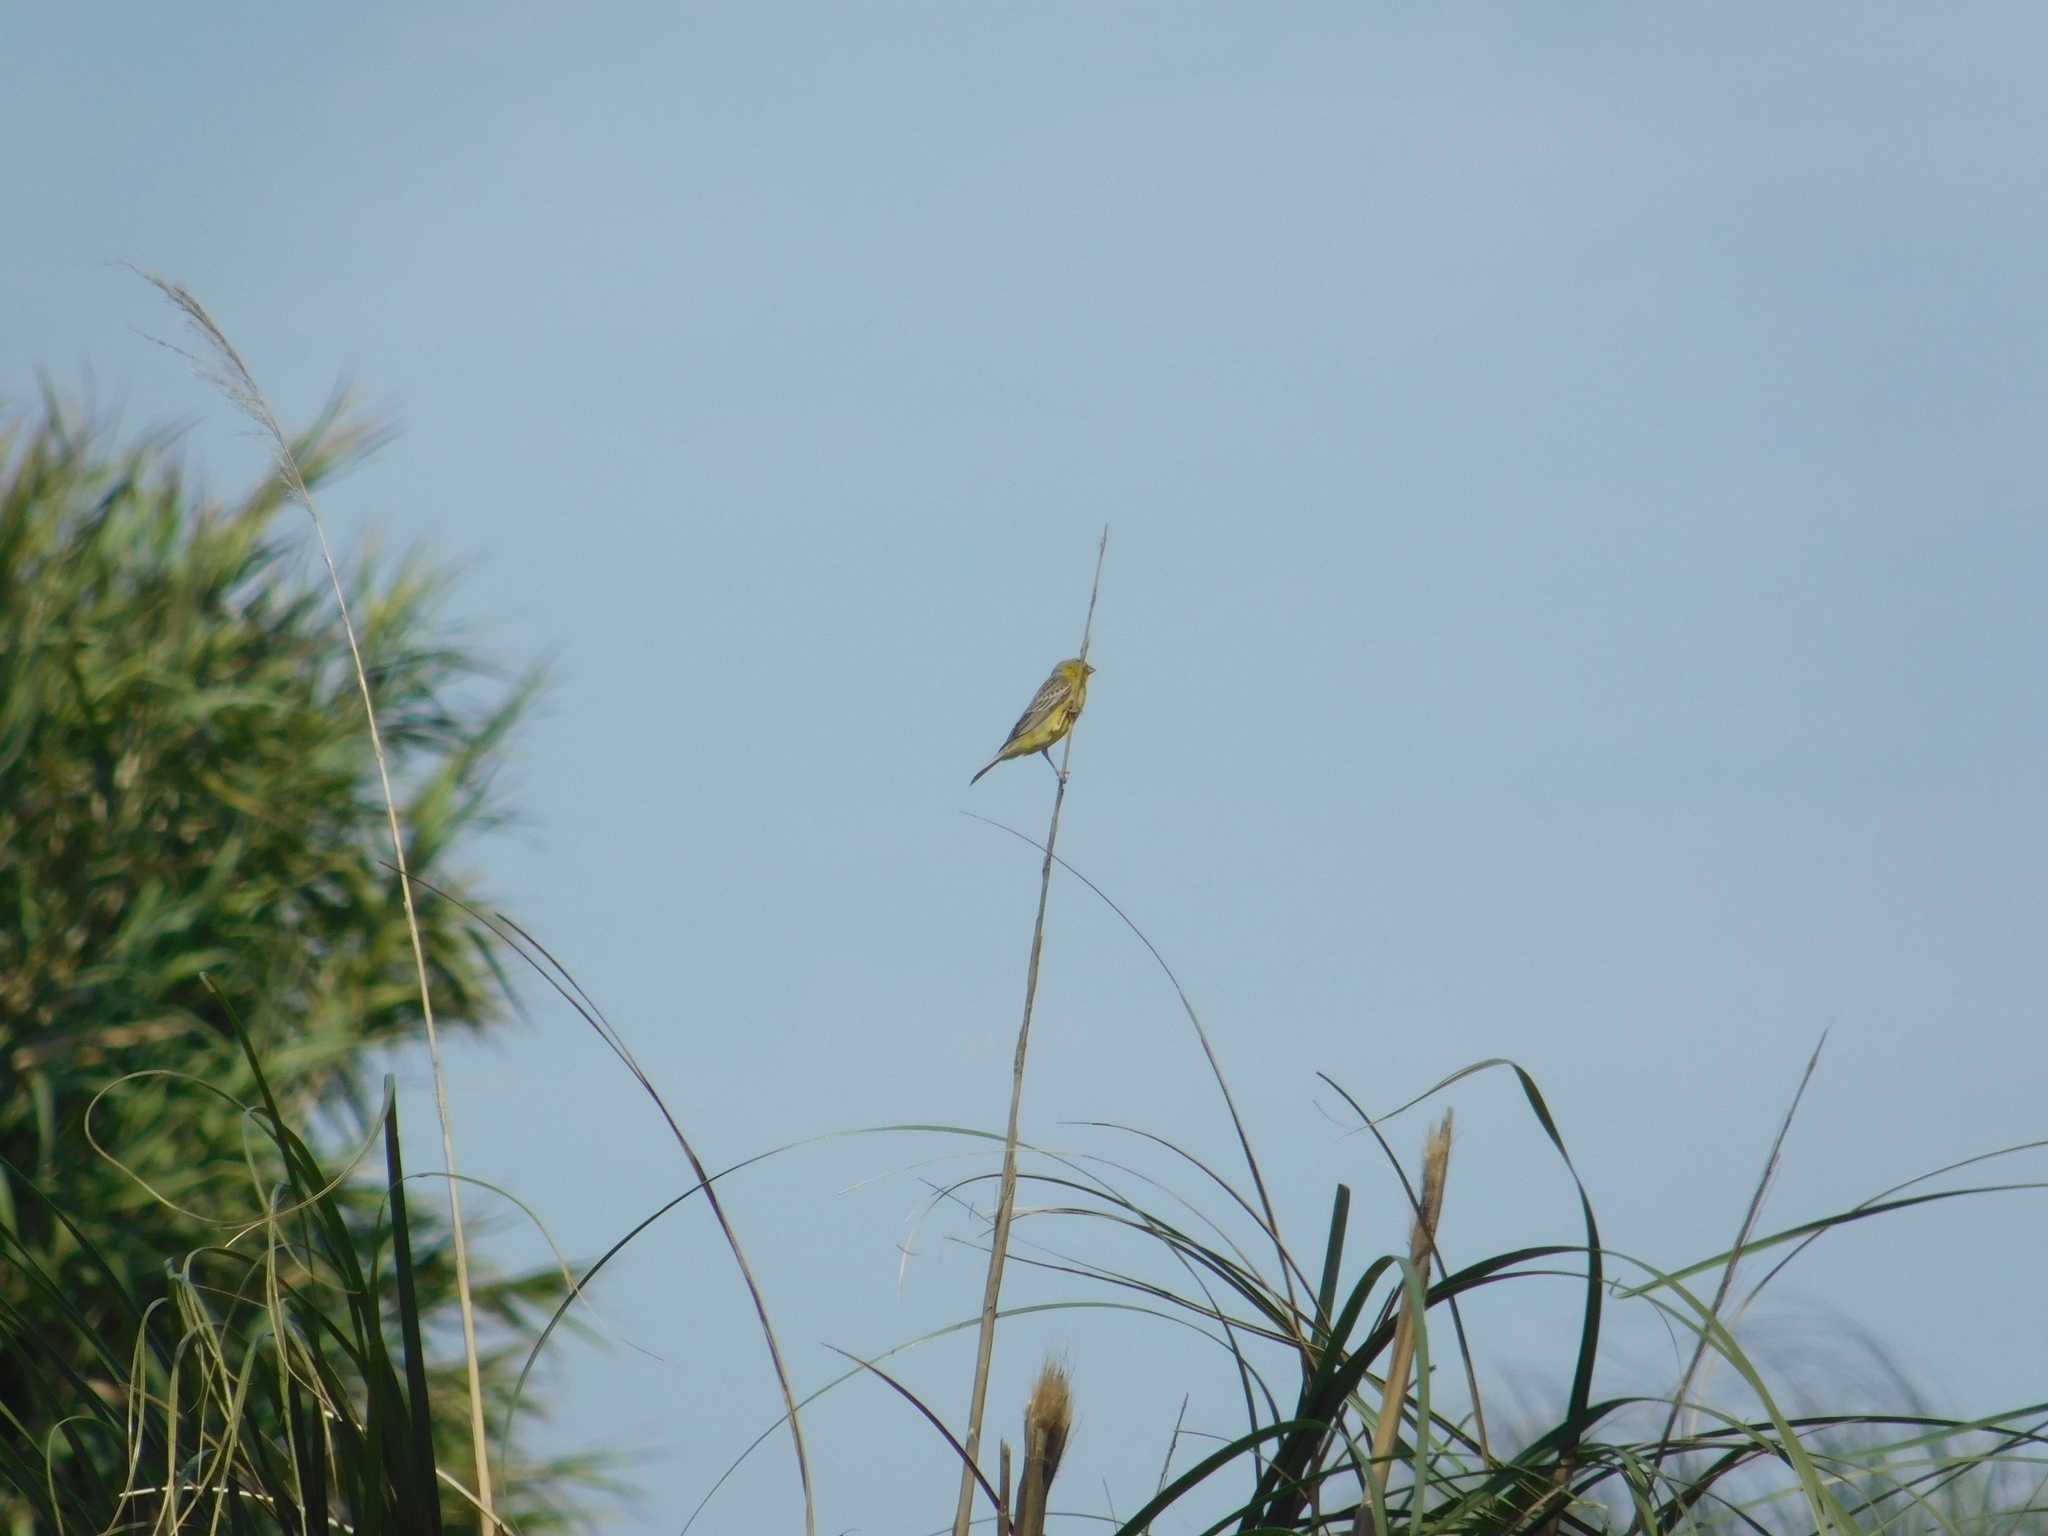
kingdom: Animalia
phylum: Chordata
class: Aves
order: Passeriformes
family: Thraupidae
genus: Sicalis
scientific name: Sicalis luteola
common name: Grassland yellow-finch
